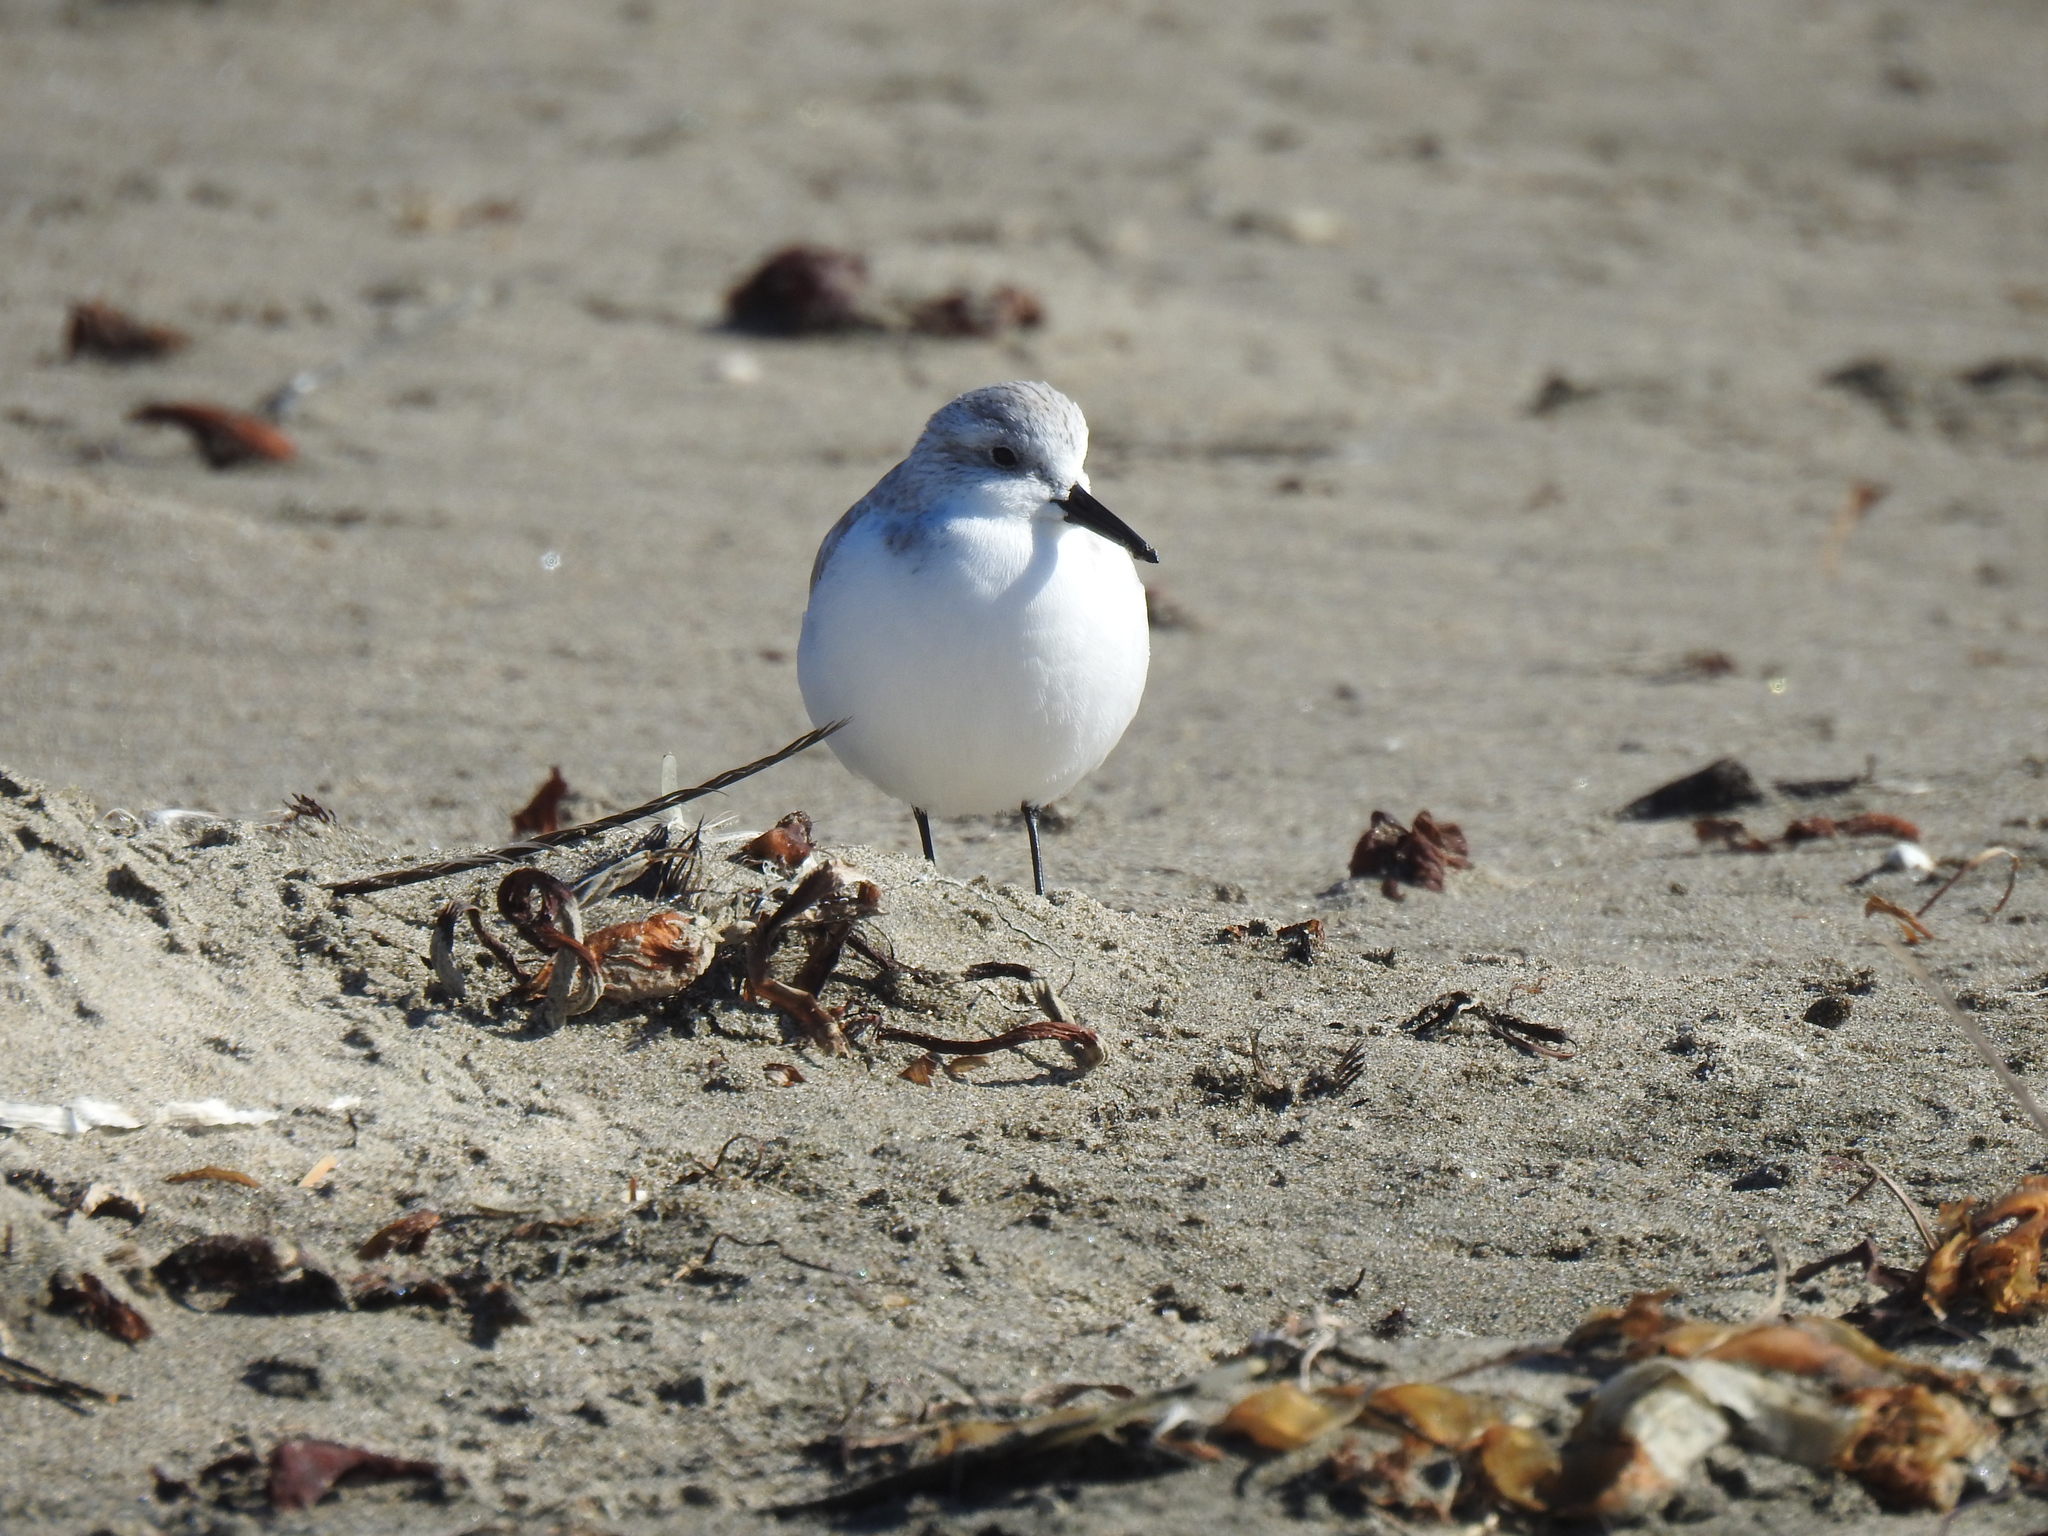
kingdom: Animalia
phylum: Chordata
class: Aves
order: Charadriiformes
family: Scolopacidae
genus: Calidris
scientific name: Calidris alba
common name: Sanderling
